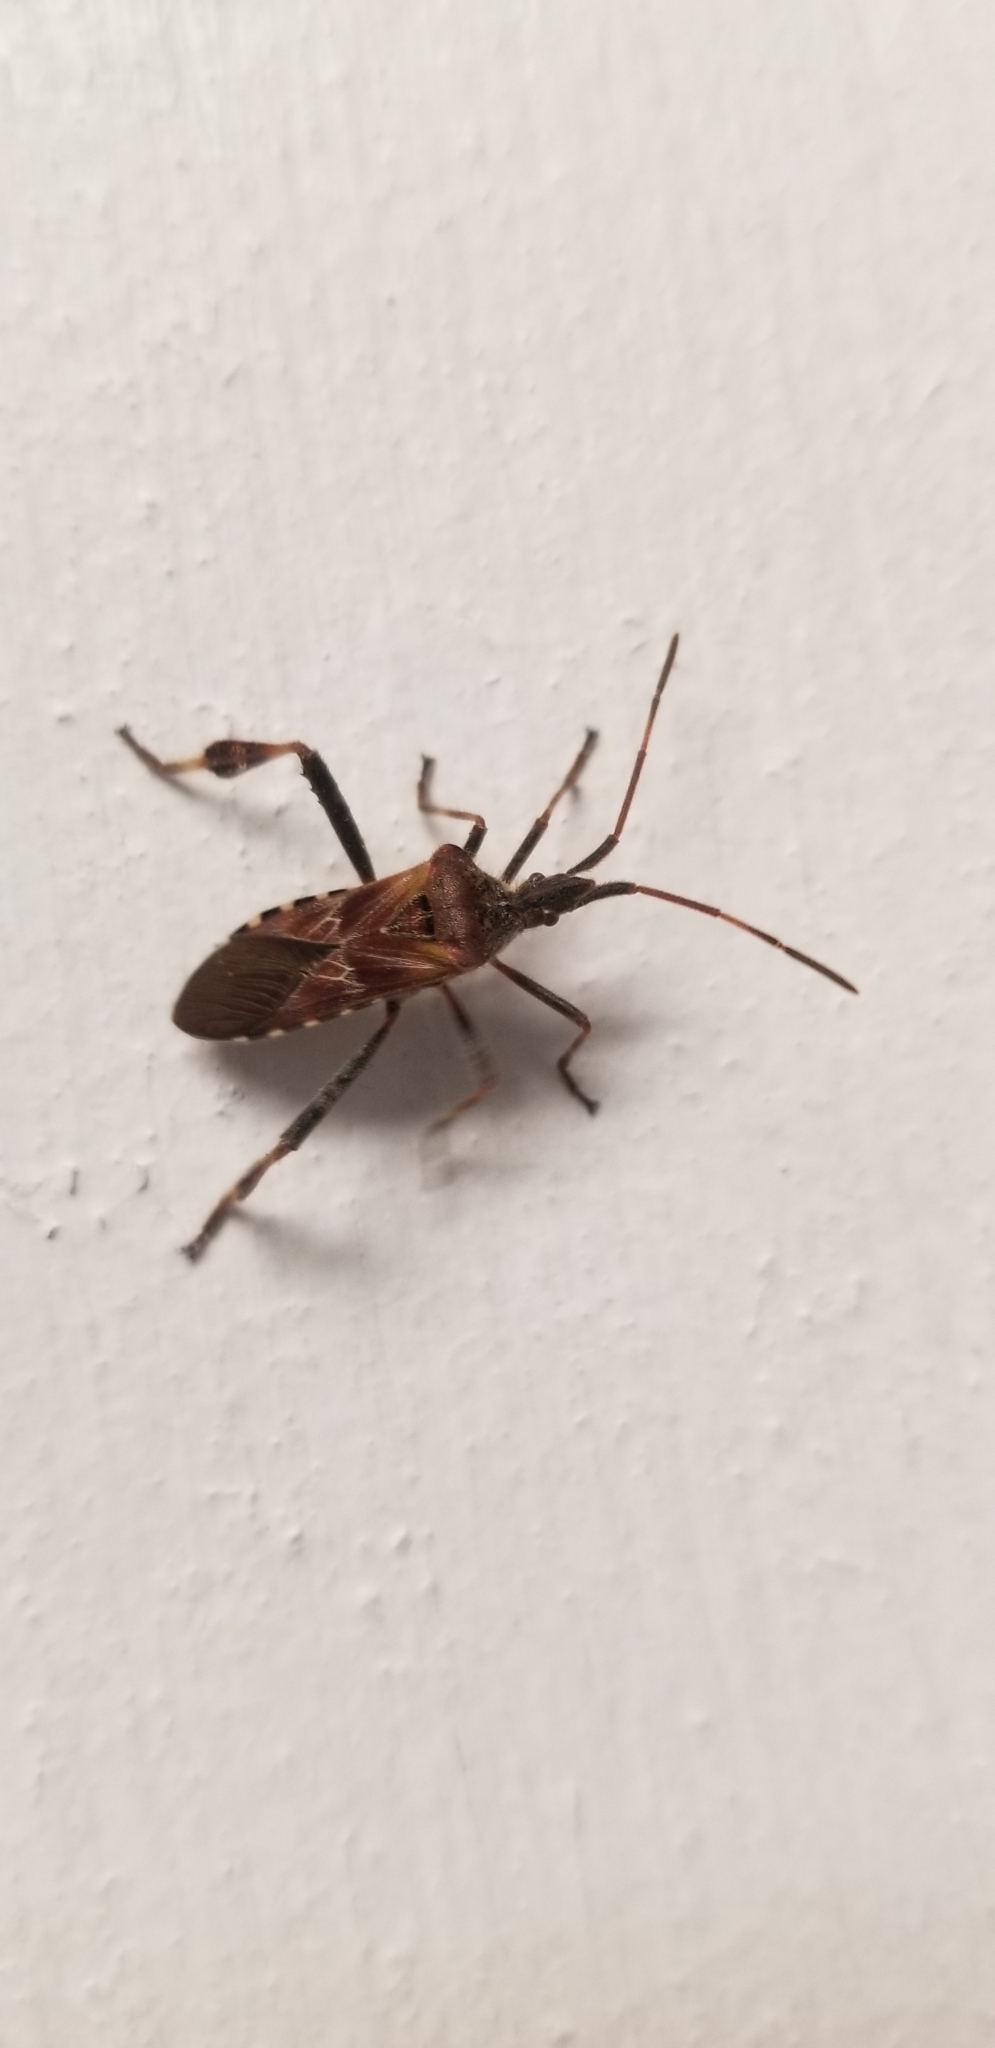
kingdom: Animalia
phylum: Arthropoda
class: Insecta
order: Hemiptera
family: Coreidae
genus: Leptoglossus
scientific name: Leptoglossus occidentalis
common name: Western conifer-seed bug
